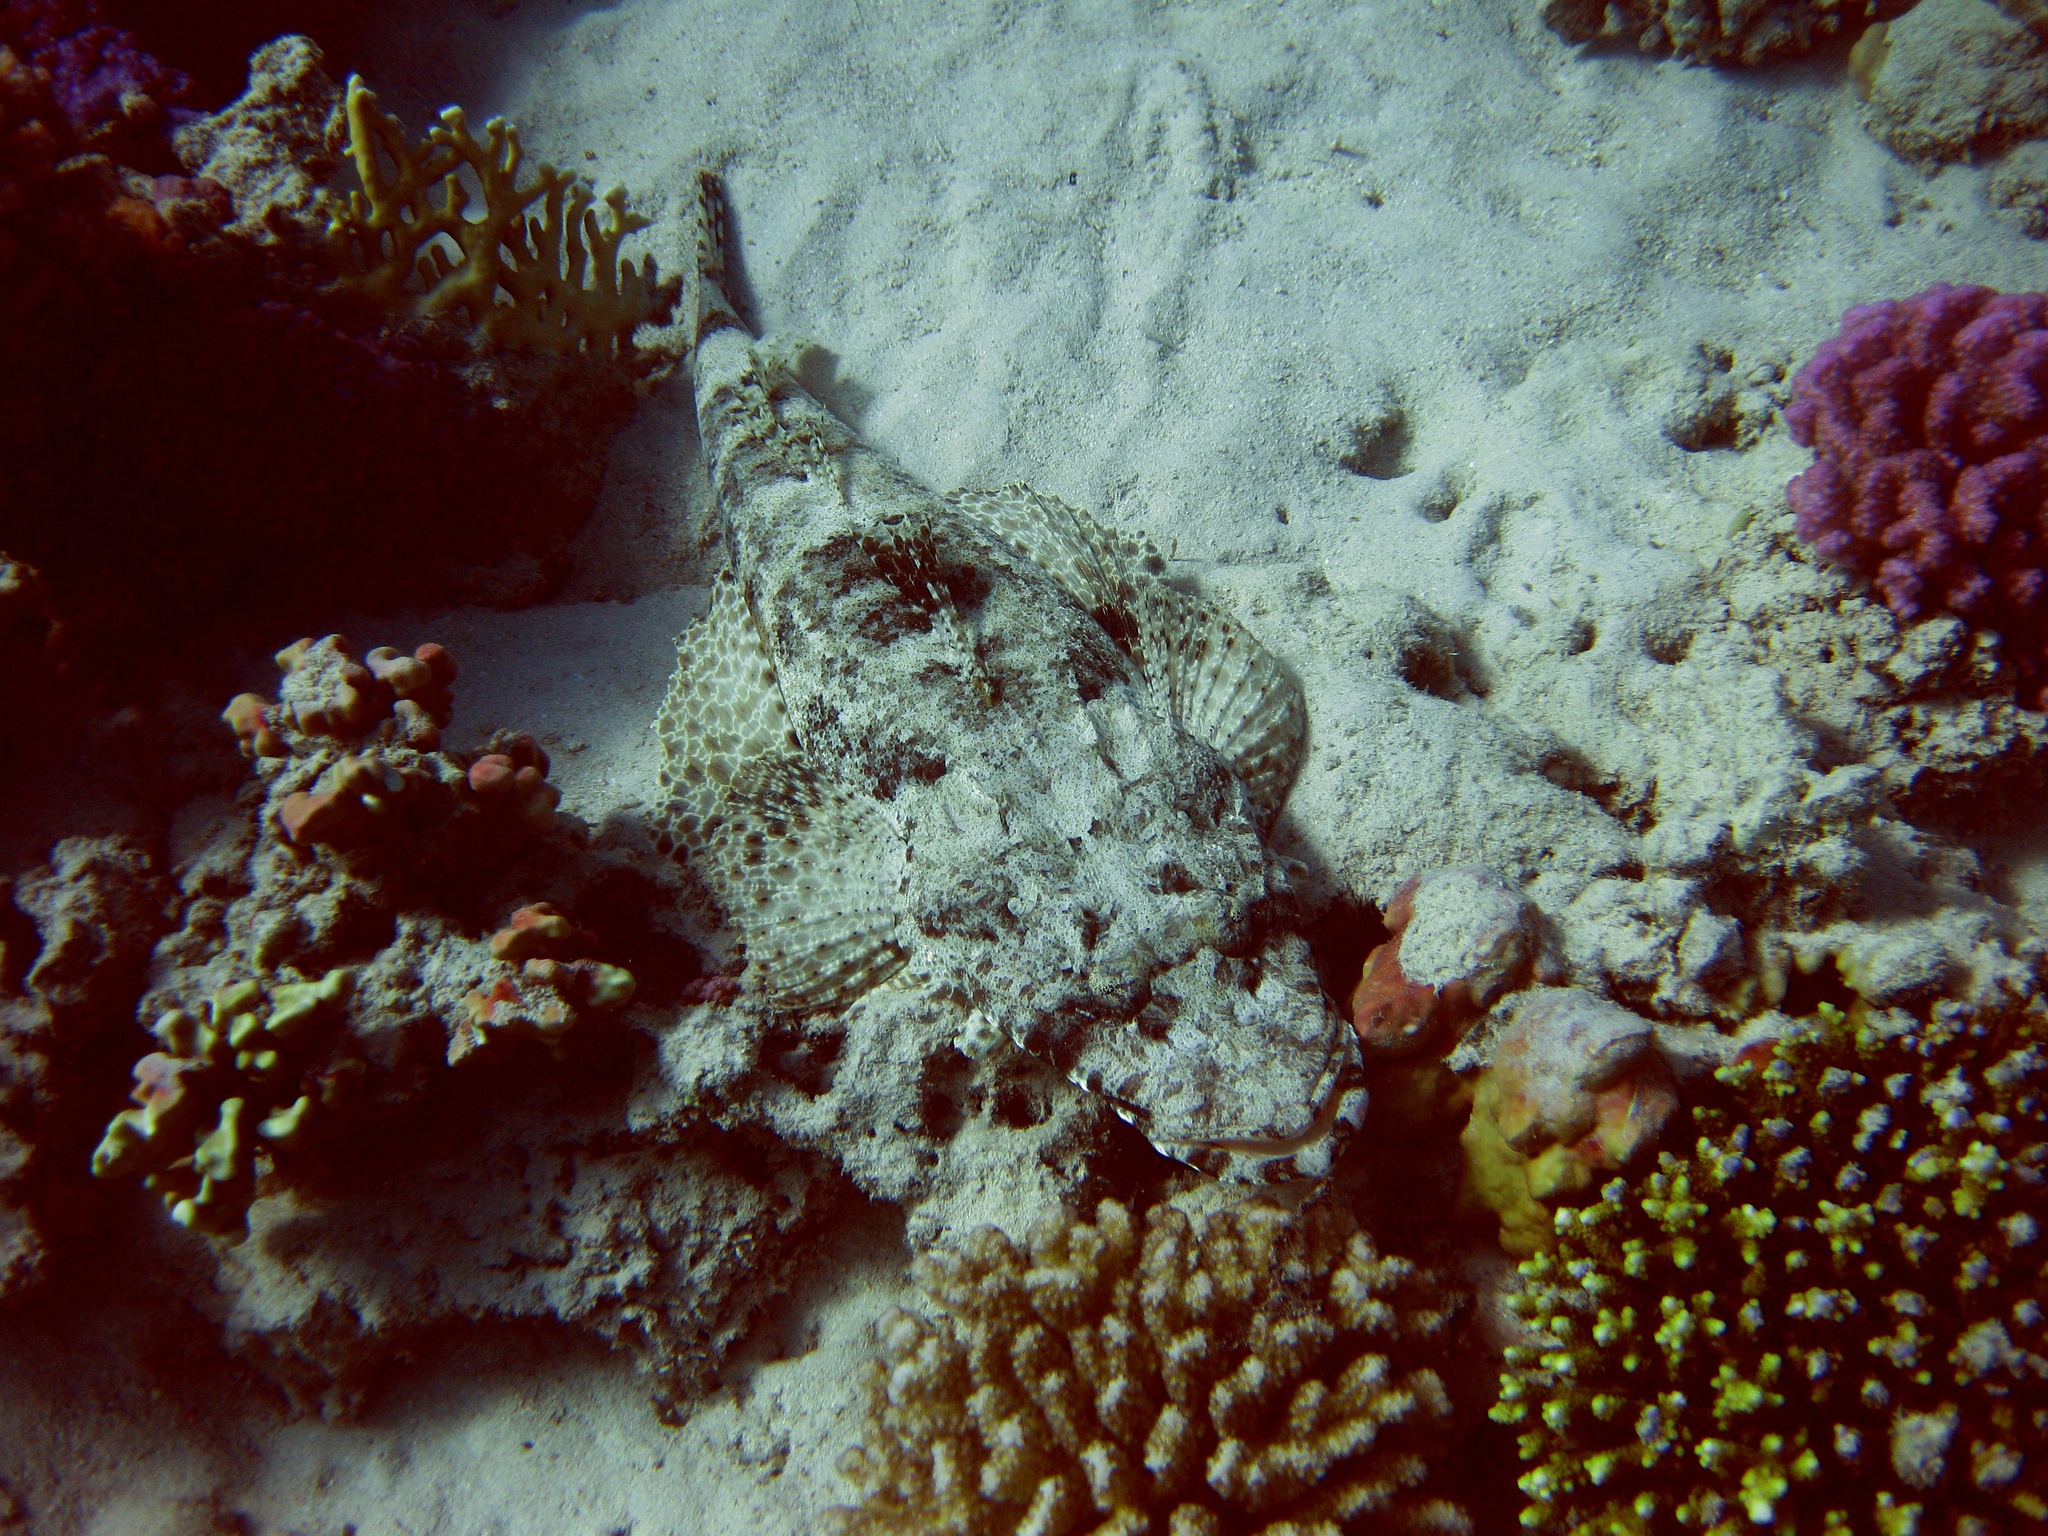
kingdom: Animalia
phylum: Chordata
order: Scorpaeniformes
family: Platycephalidae
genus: Papilloculiceps
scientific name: Papilloculiceps longiceps
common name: Tentacled flathead
